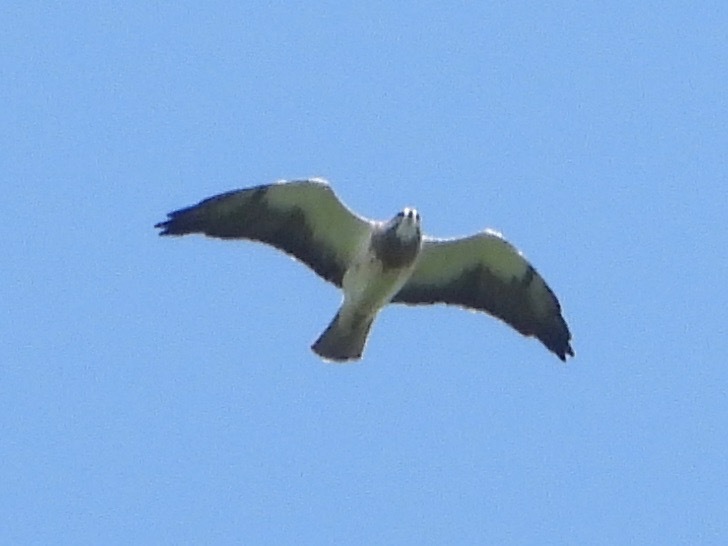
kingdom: Animalia
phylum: Chordata
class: Aves
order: Accipitriformes
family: Accipitridae
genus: Buteo
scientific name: Buteo swainsoni
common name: Swainson's hawk
